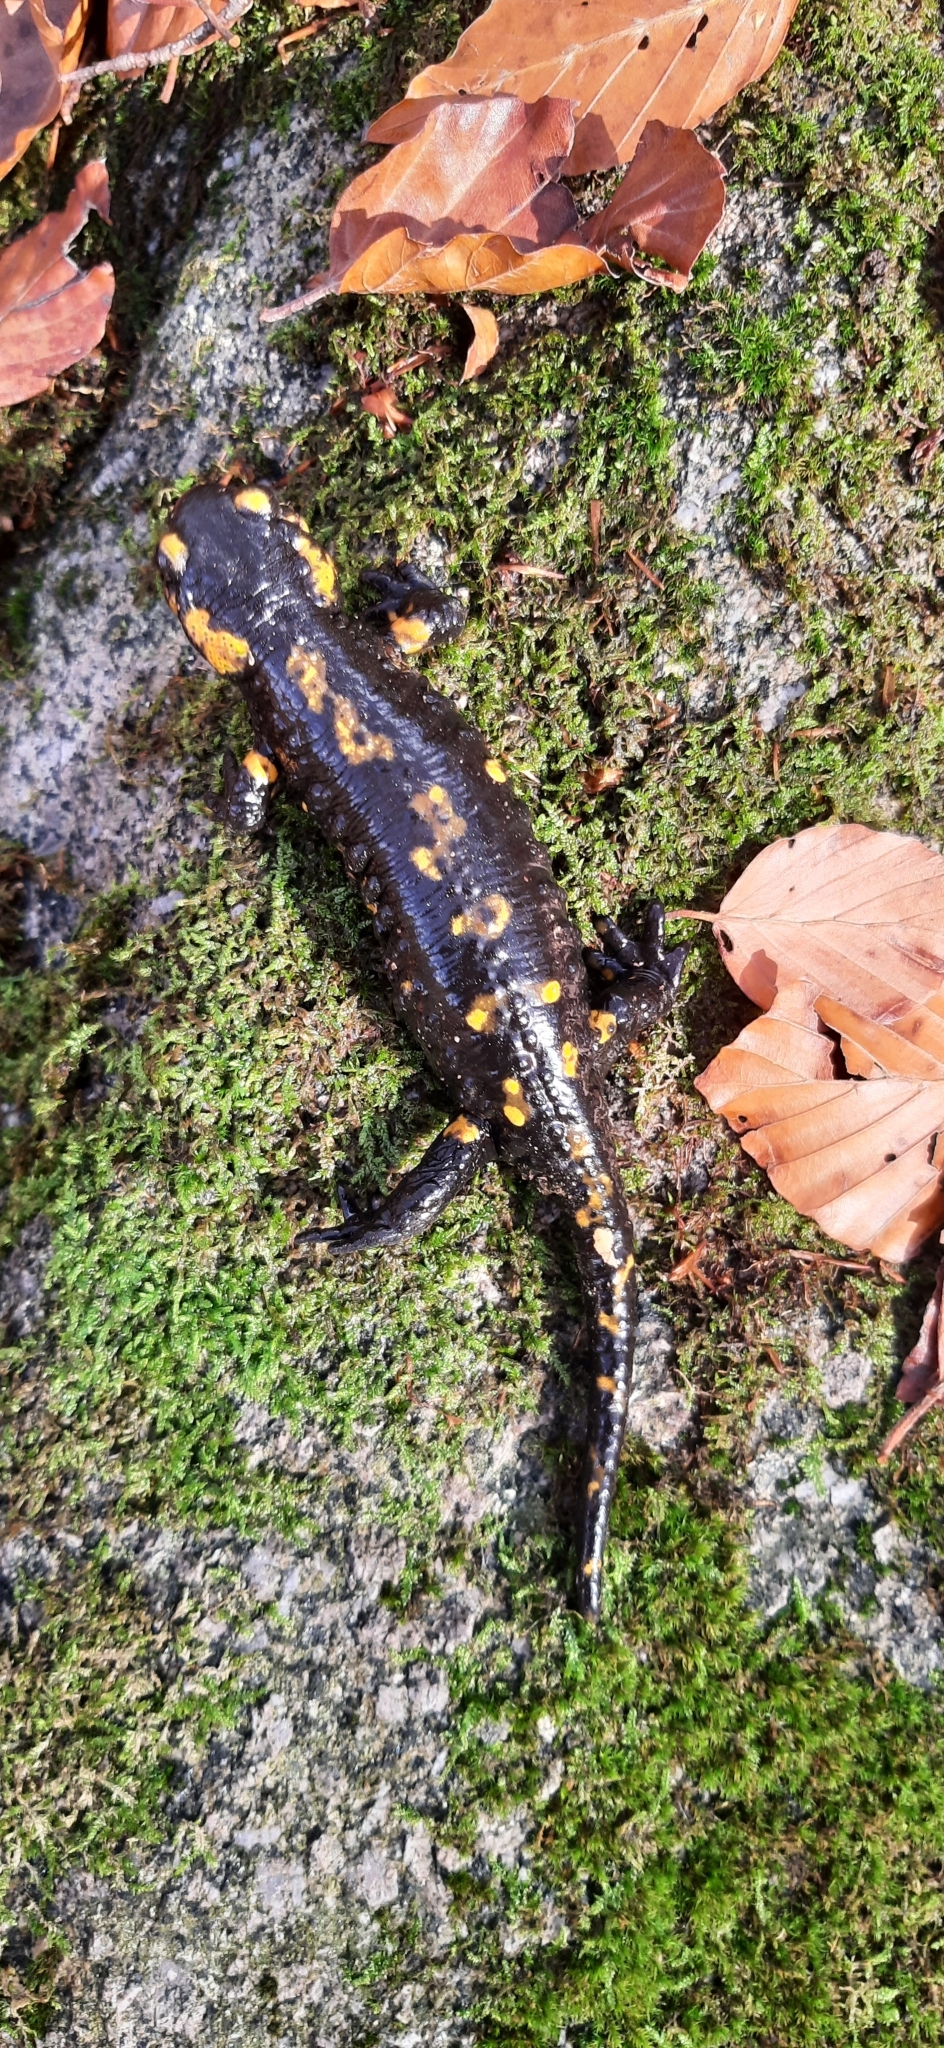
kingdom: Animalia
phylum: Chordata
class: Amphibia
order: Caudata
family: Salamandridae
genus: Salamandra
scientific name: Salamandra salamandra
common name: Fire salamander
